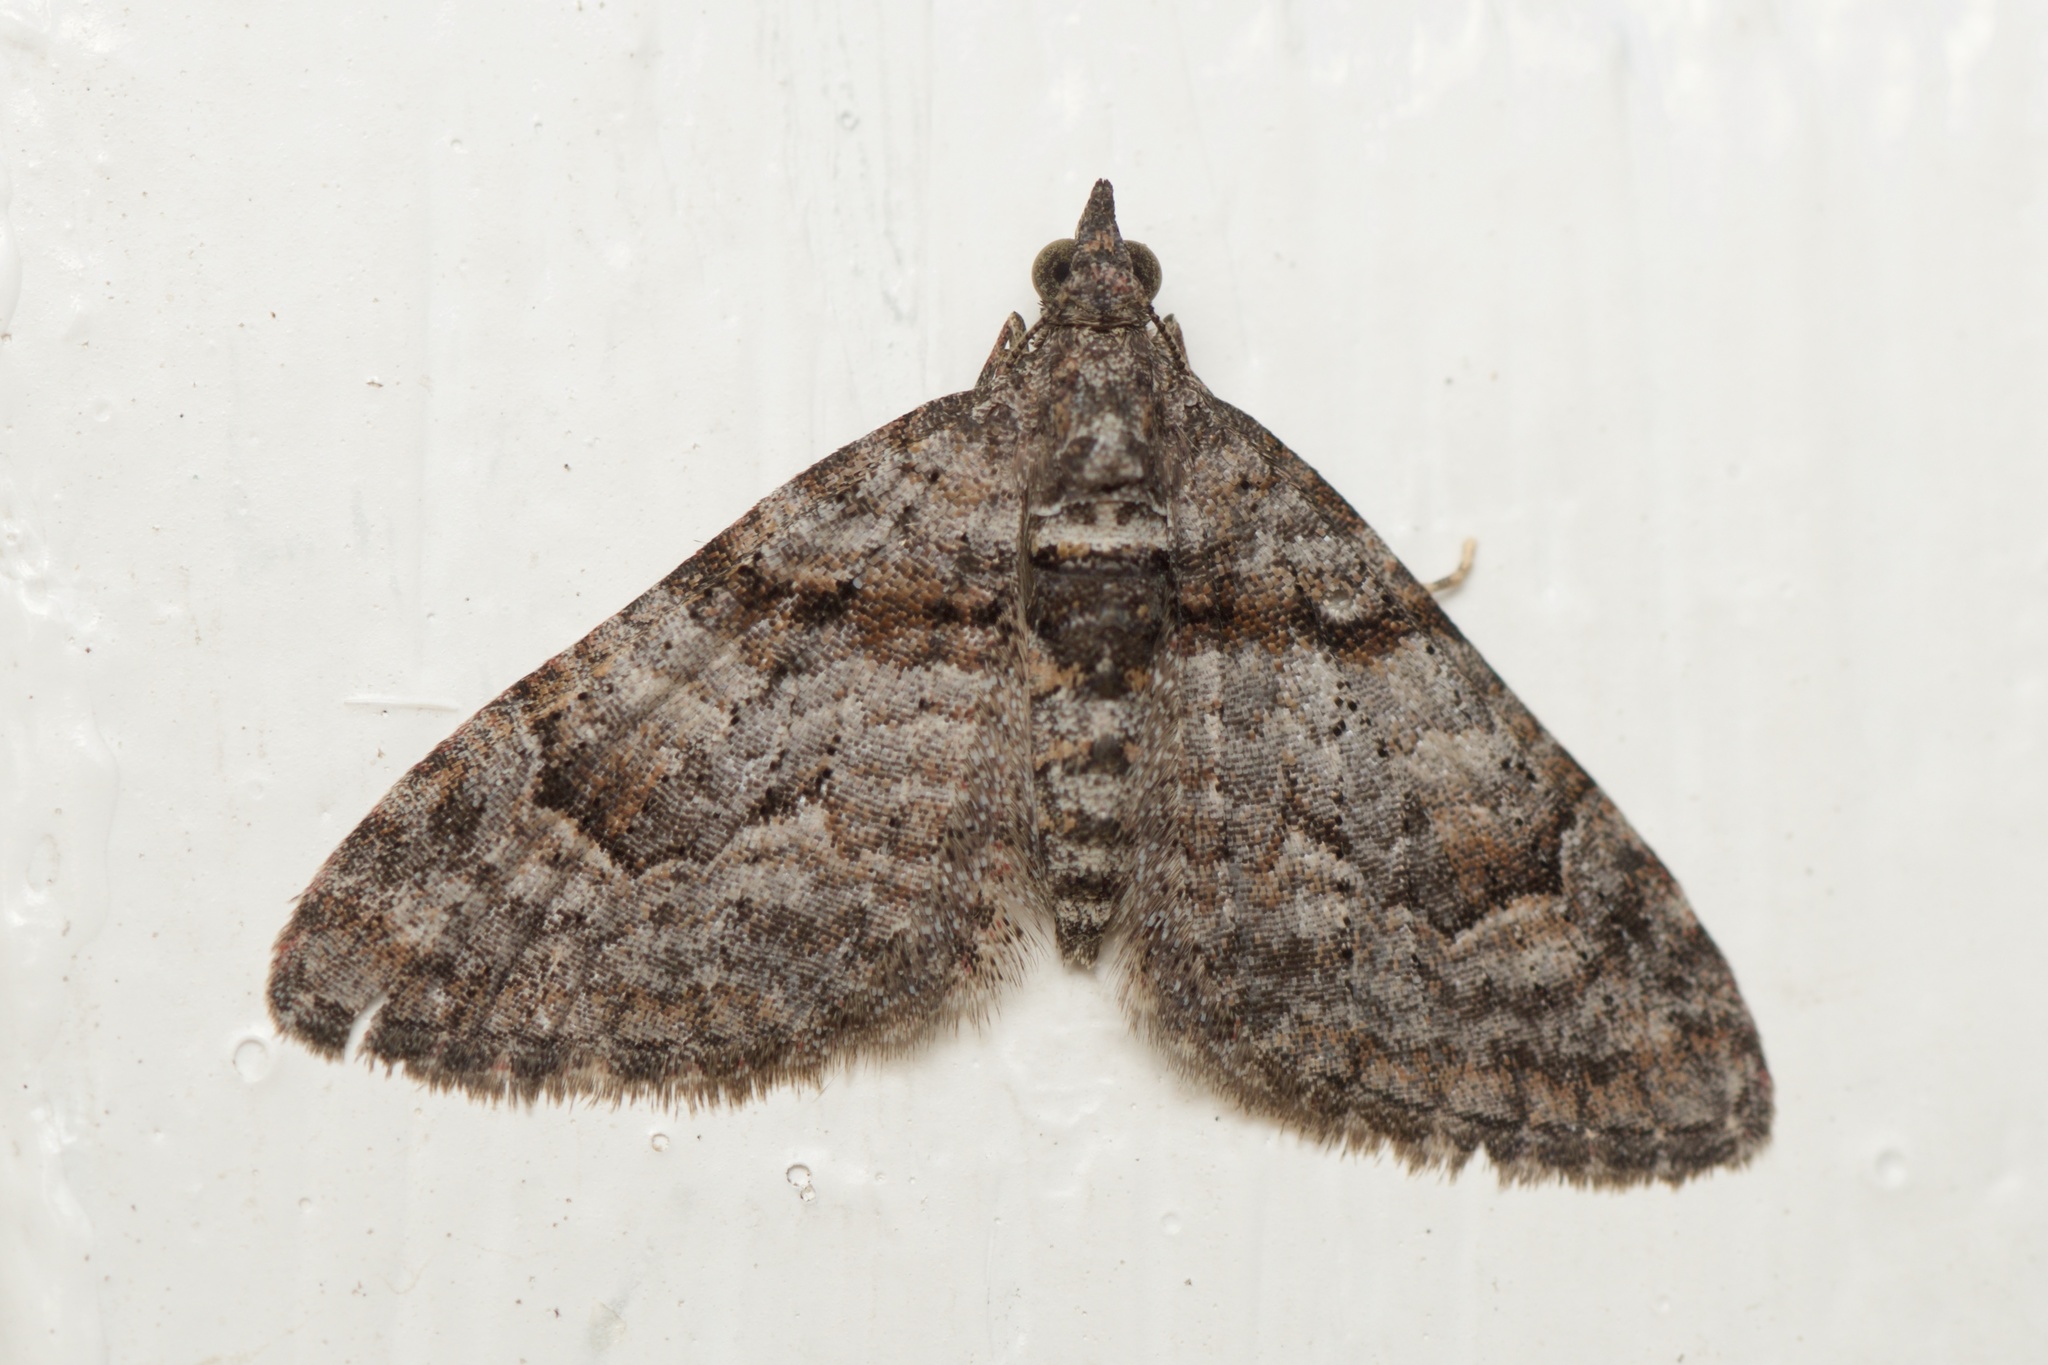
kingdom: Animalia
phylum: Arthropoda
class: Insecta
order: Lepidoptera
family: Geometridae
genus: Phrissogonus
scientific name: Phrissogonus laticostata
